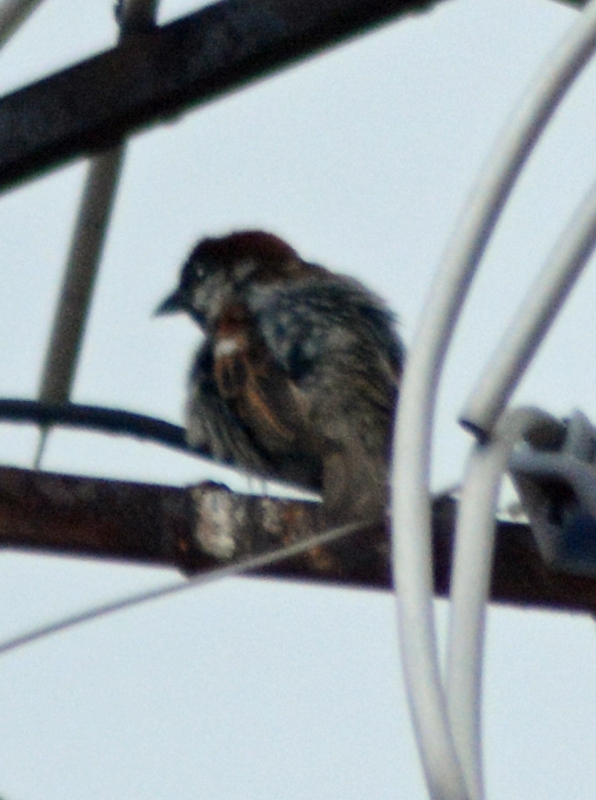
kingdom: Animalia
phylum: Chordata
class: Aves
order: Passeriformes
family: Passeridae
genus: Passer
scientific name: Passer domesticus
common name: House sparrow
